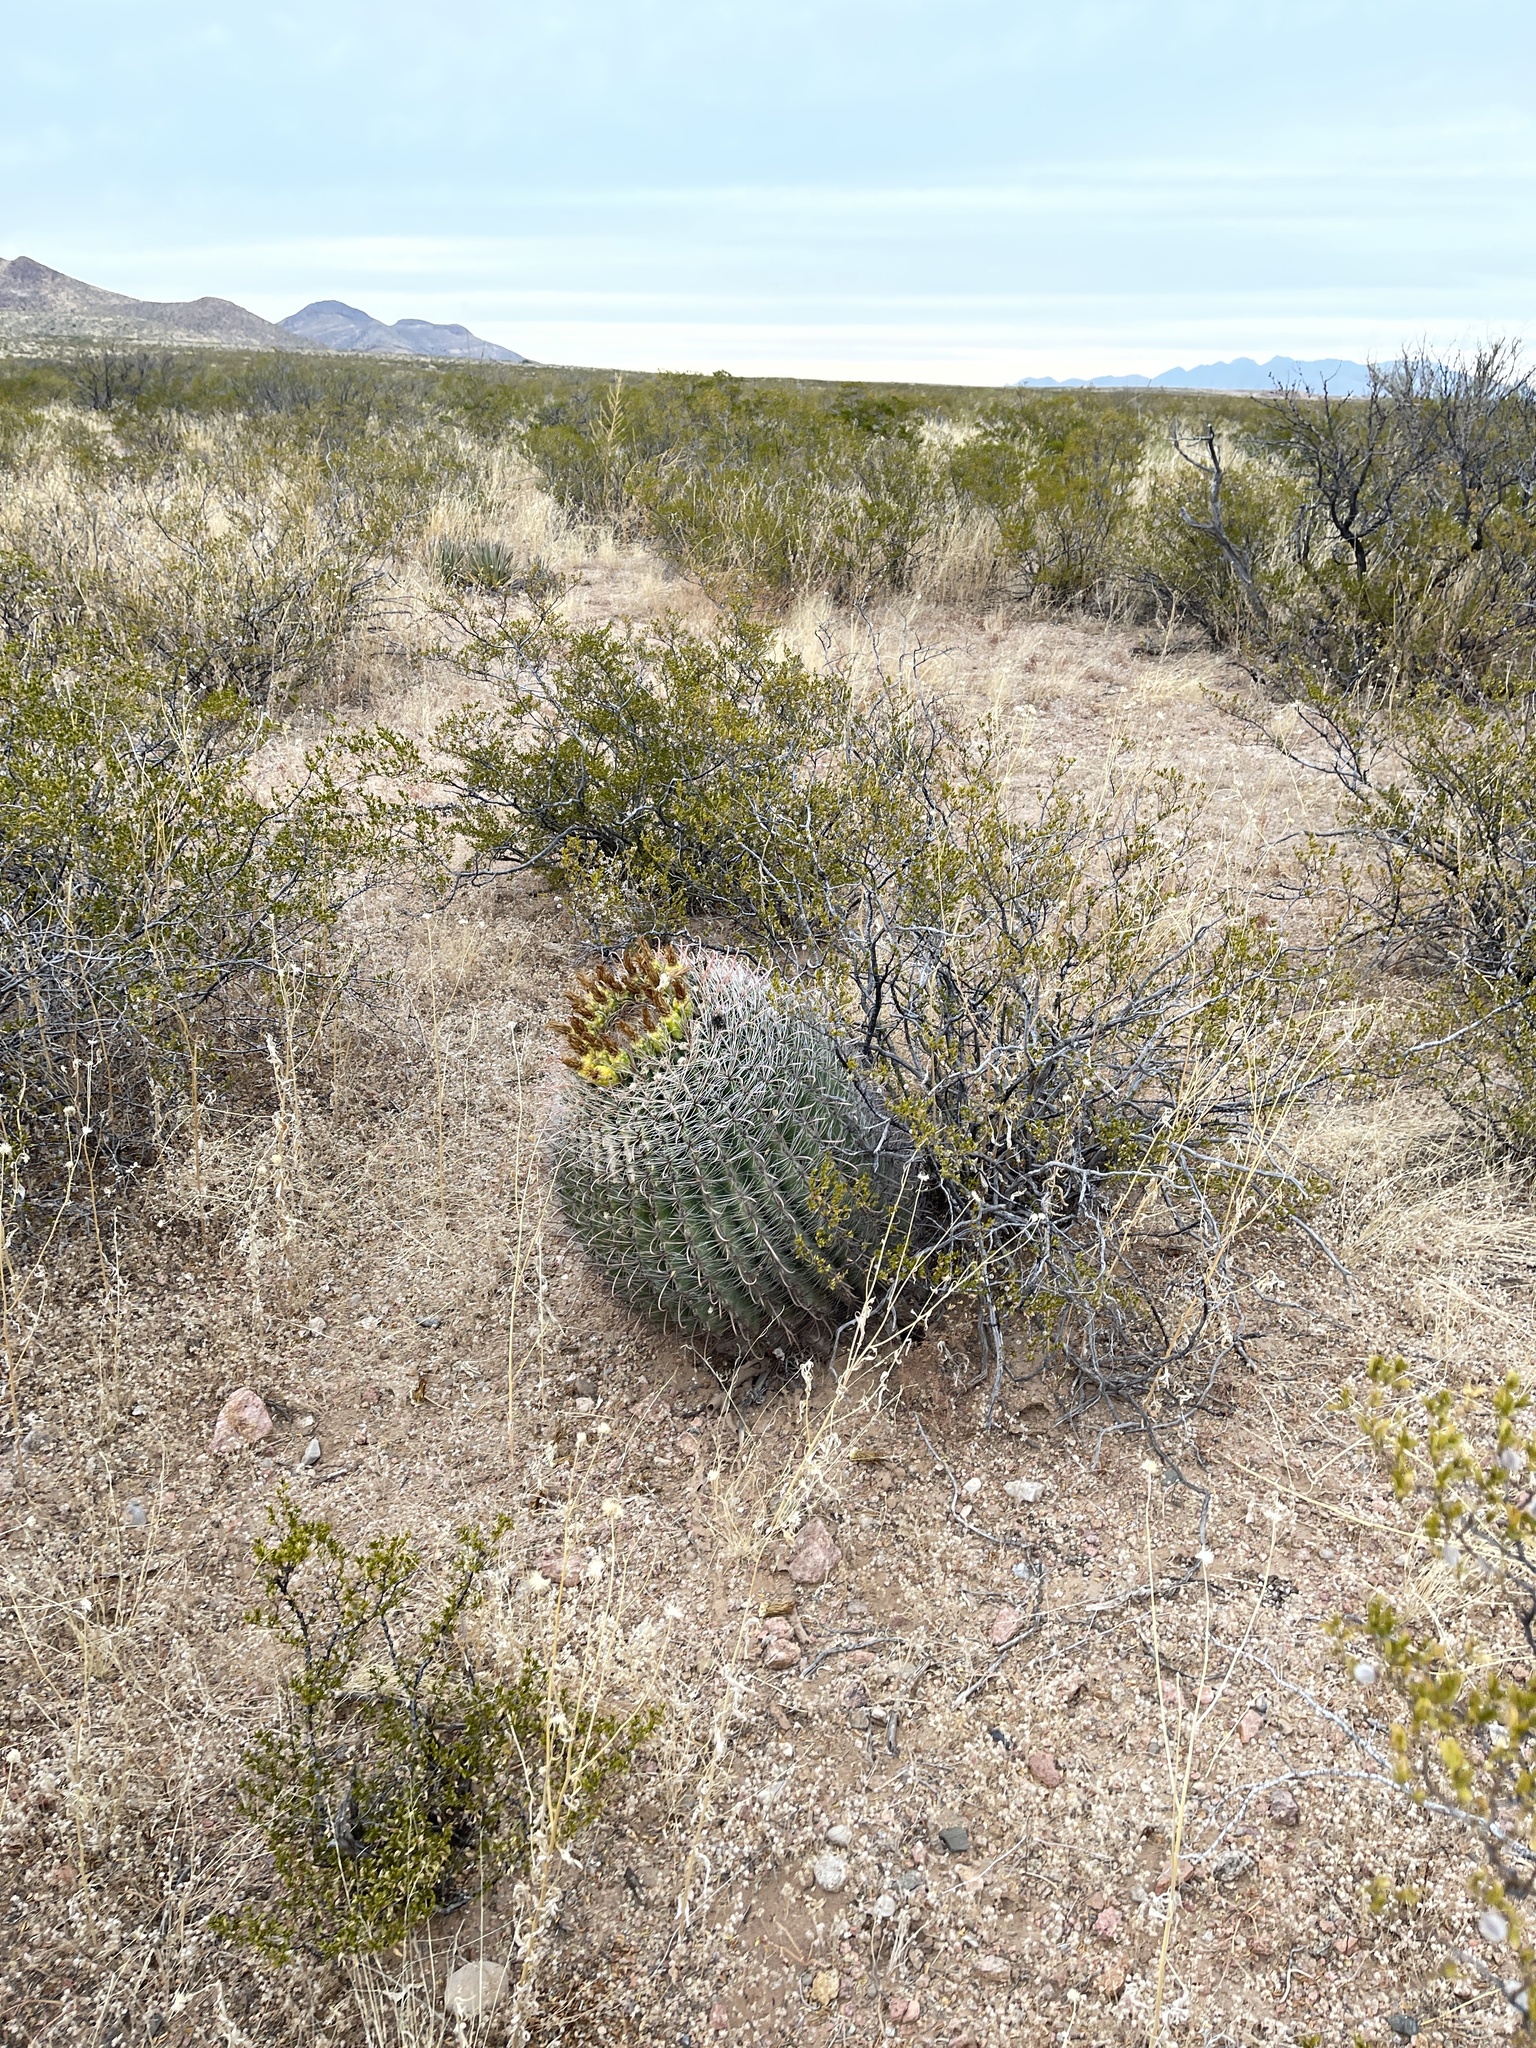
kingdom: Plantae
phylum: Tracheophyta
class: Magnoliopsida
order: Caryophyllales
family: Cactaceae
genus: Ferocactus
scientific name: Ferocactus wislizeni
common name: Candy barrel cactus
